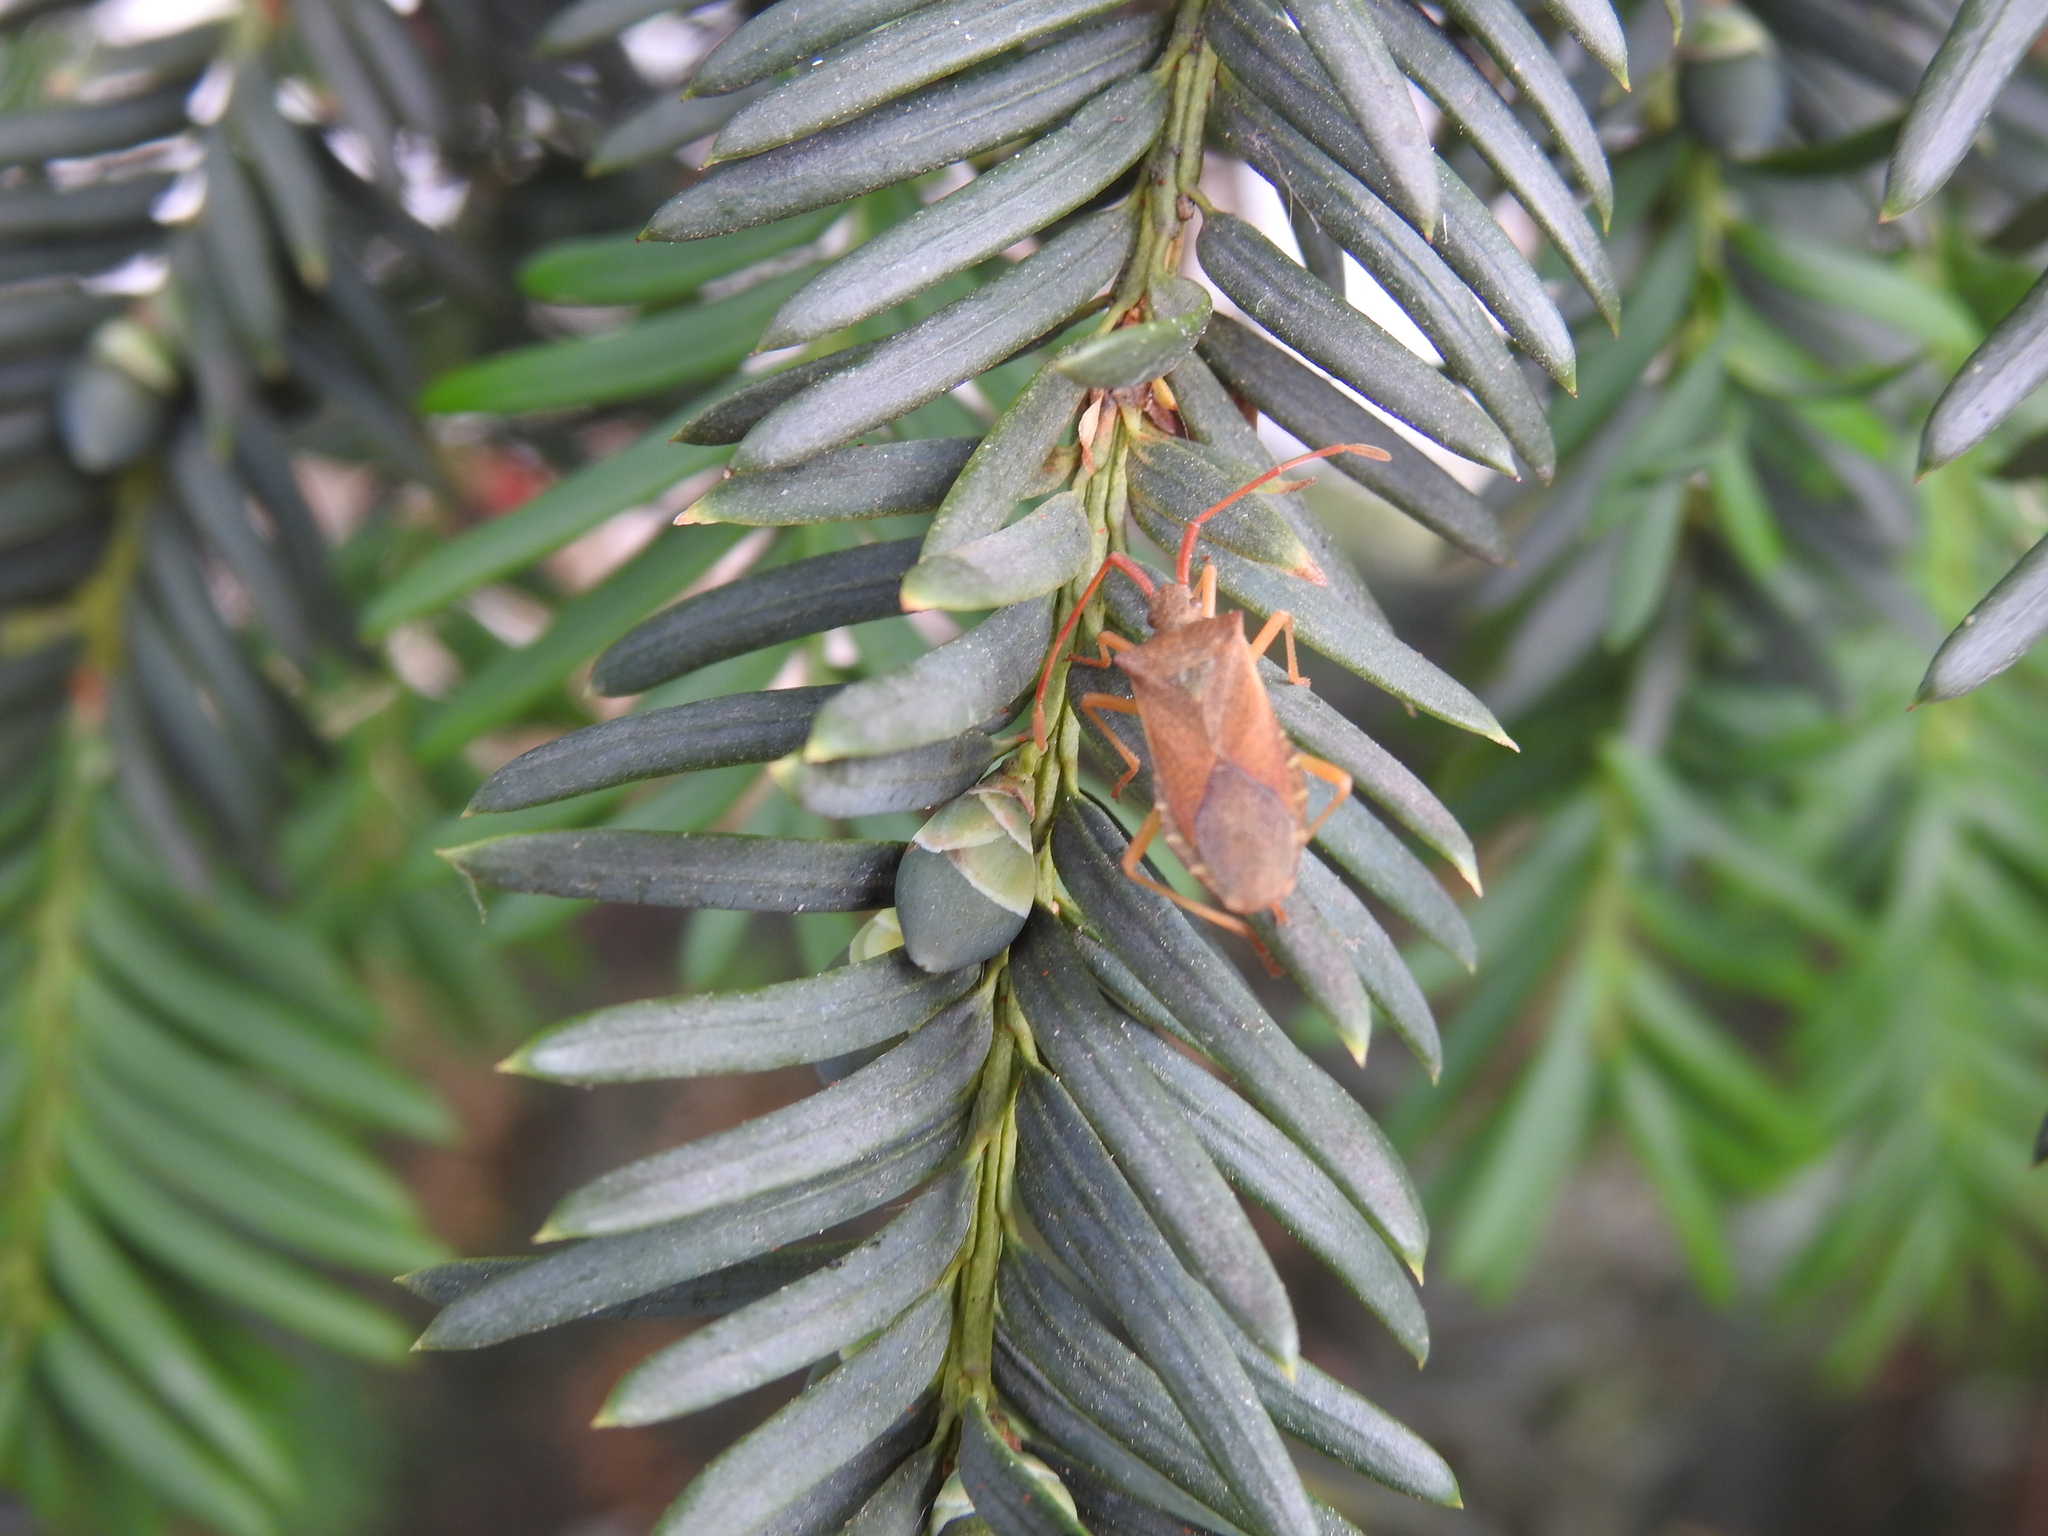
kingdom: Animalia
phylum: Arthropoda
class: Insecta
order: Hemiptera
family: Coreidae
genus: Gonocerus
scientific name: Gonocerus acuteangulatus
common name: Box bug
